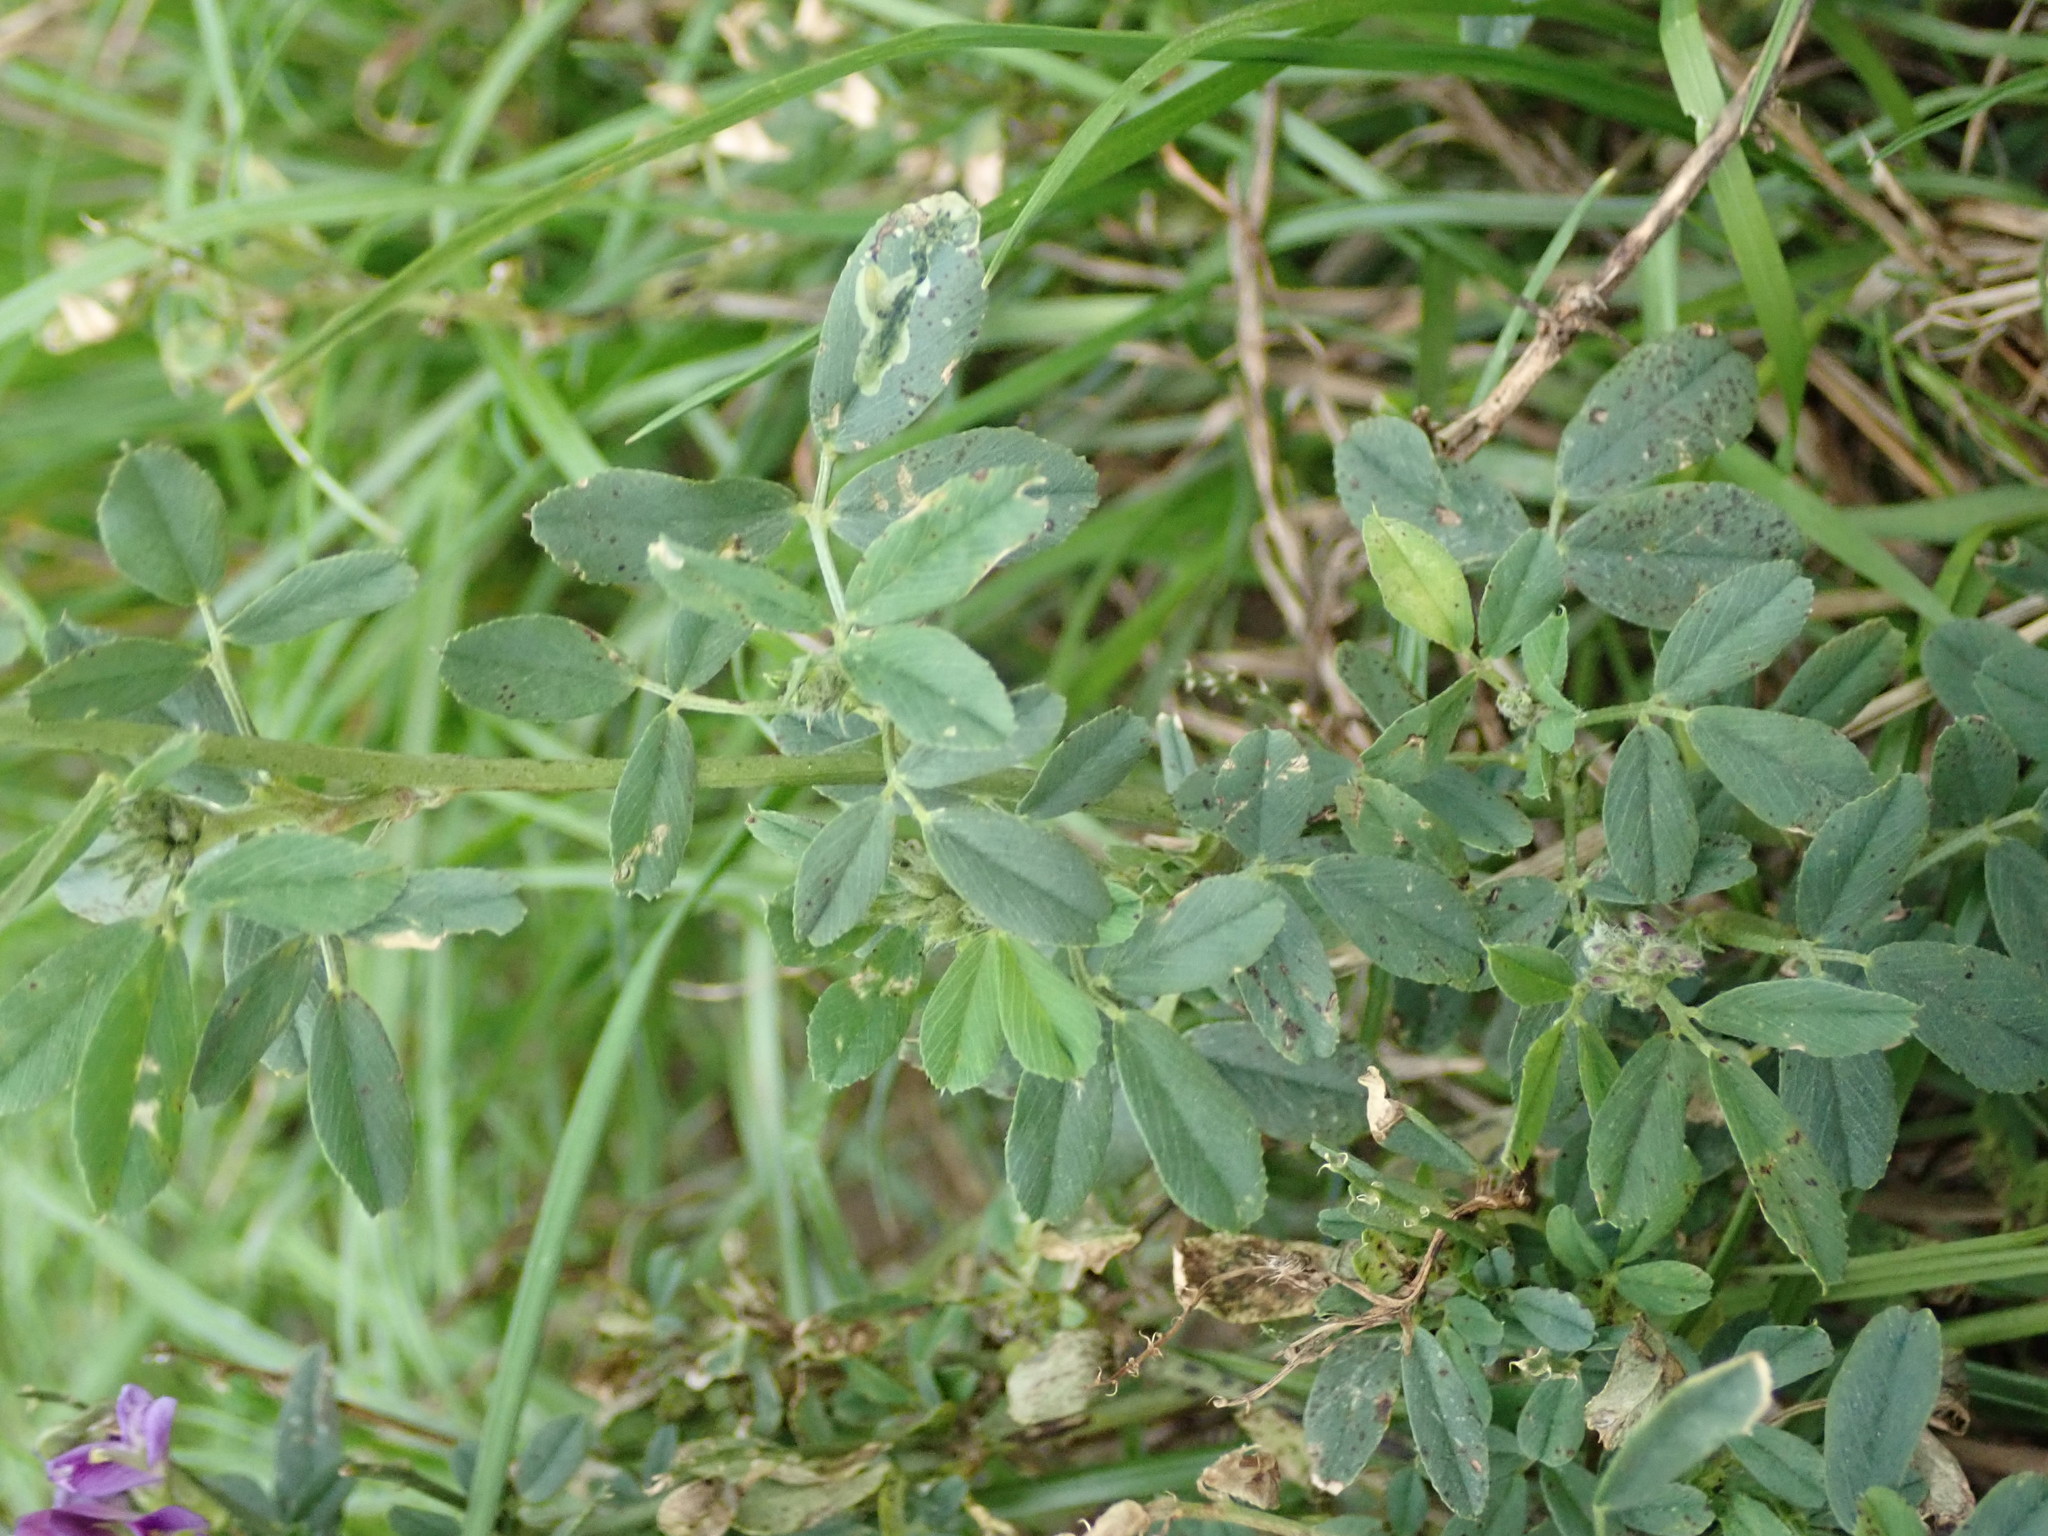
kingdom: Plantae
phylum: Tracheophyta
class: Magnoliopsida
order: Fabales
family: Fabaceae
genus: Medicago
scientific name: Medicago sativa
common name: Alfalfa
